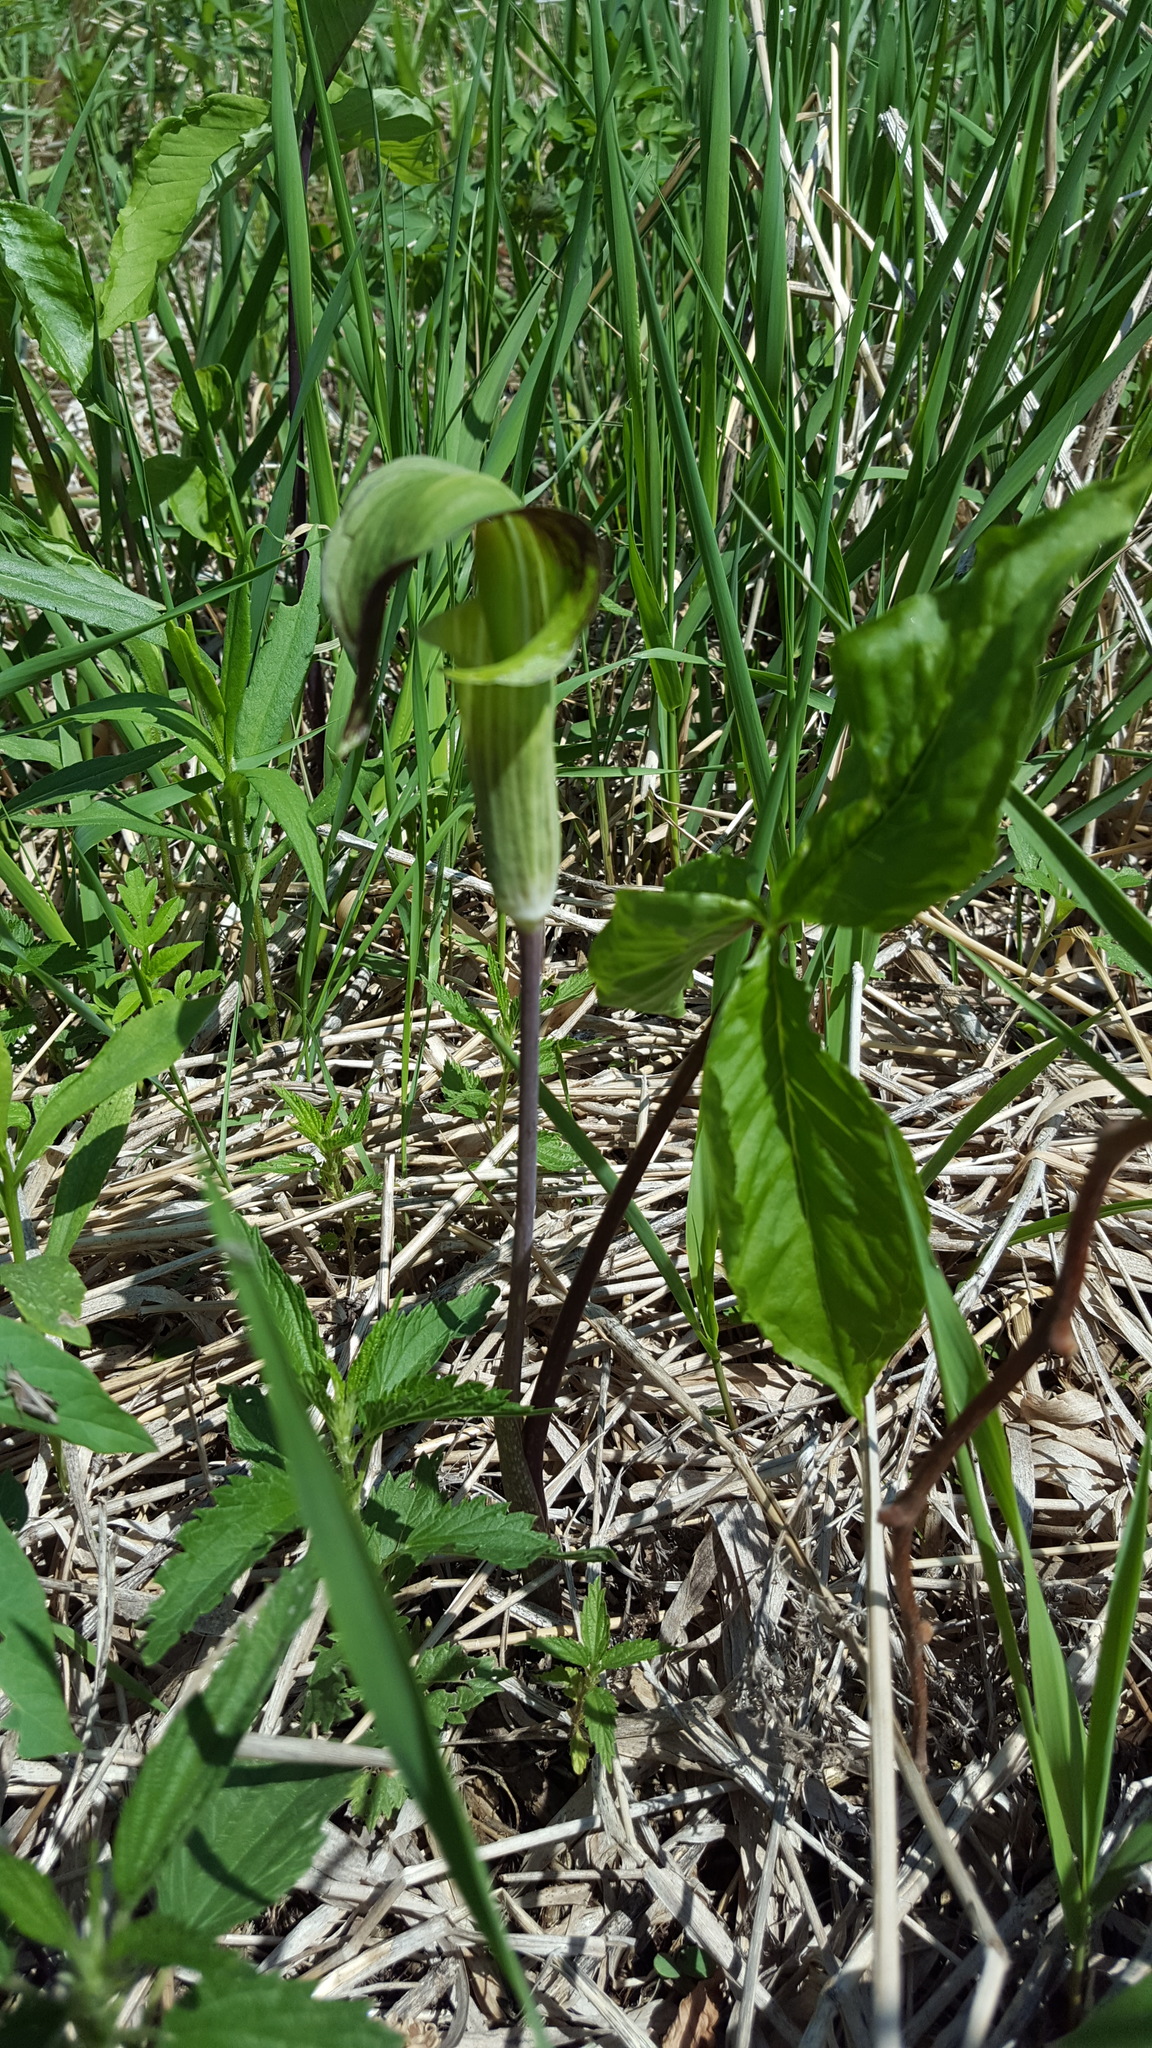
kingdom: Plantae
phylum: Tracheophyta
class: Liliopsida
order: Alismatales
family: Araceae
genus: Arisaema
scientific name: Arisaema triphyllum
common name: Jack-in-the-pulpit
